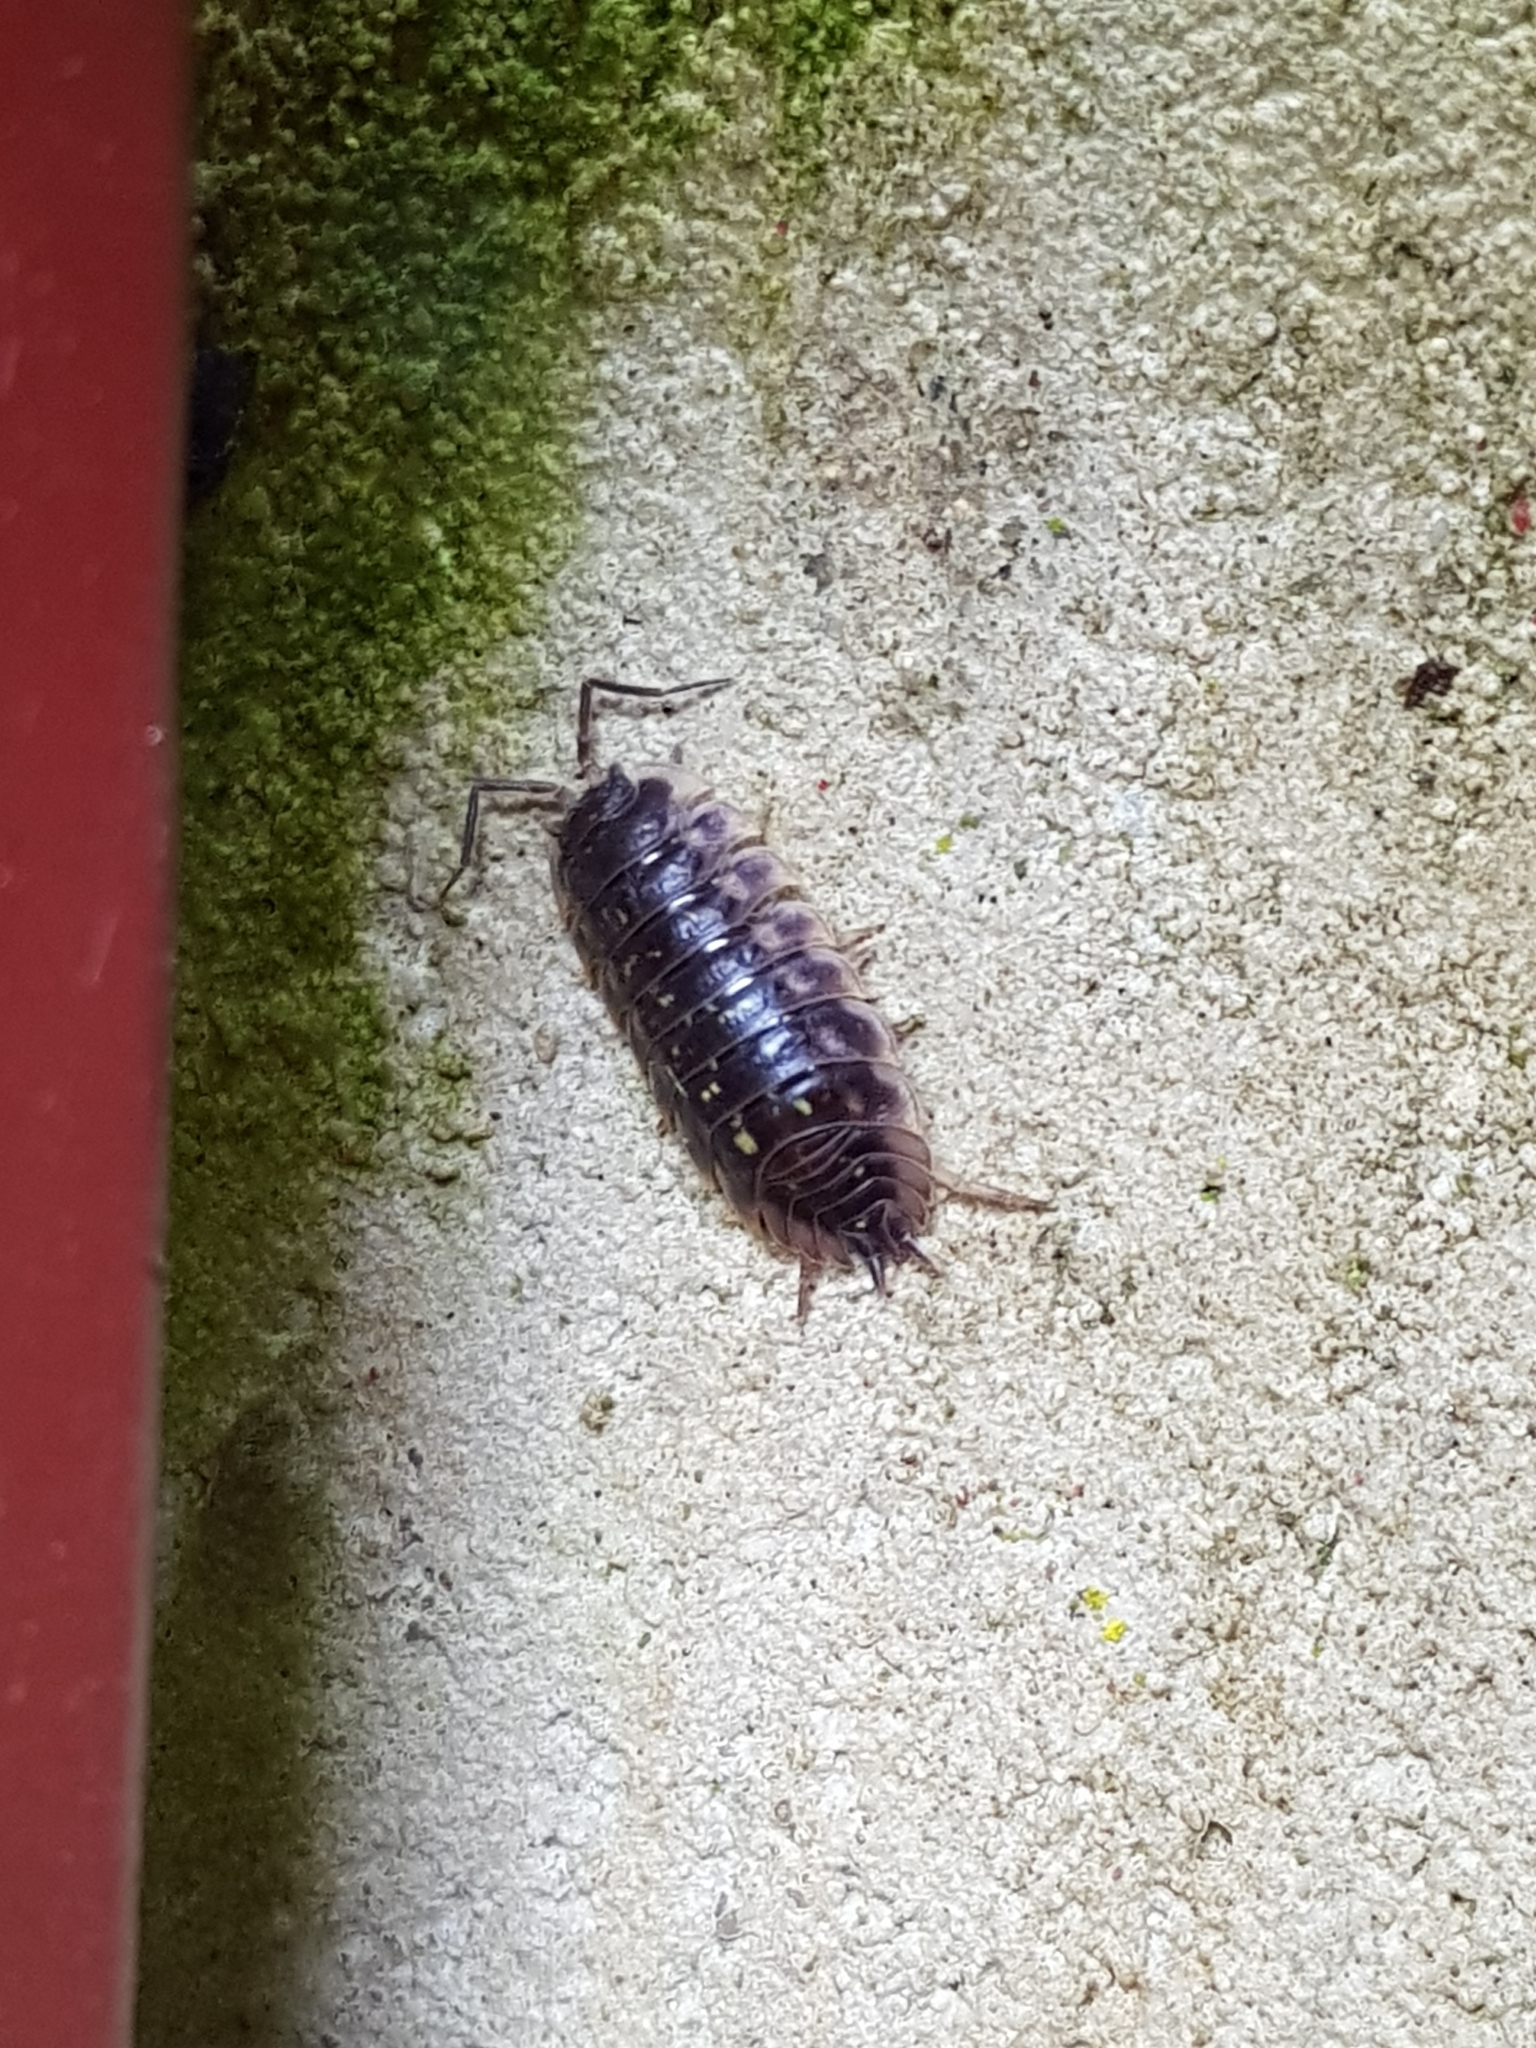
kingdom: Animalia
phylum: Arthropoda
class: Malacostraca
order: Isopoda
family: Oniscidae
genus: Oniscus
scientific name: Oniscus asellus
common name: Common shiny woodlouse
